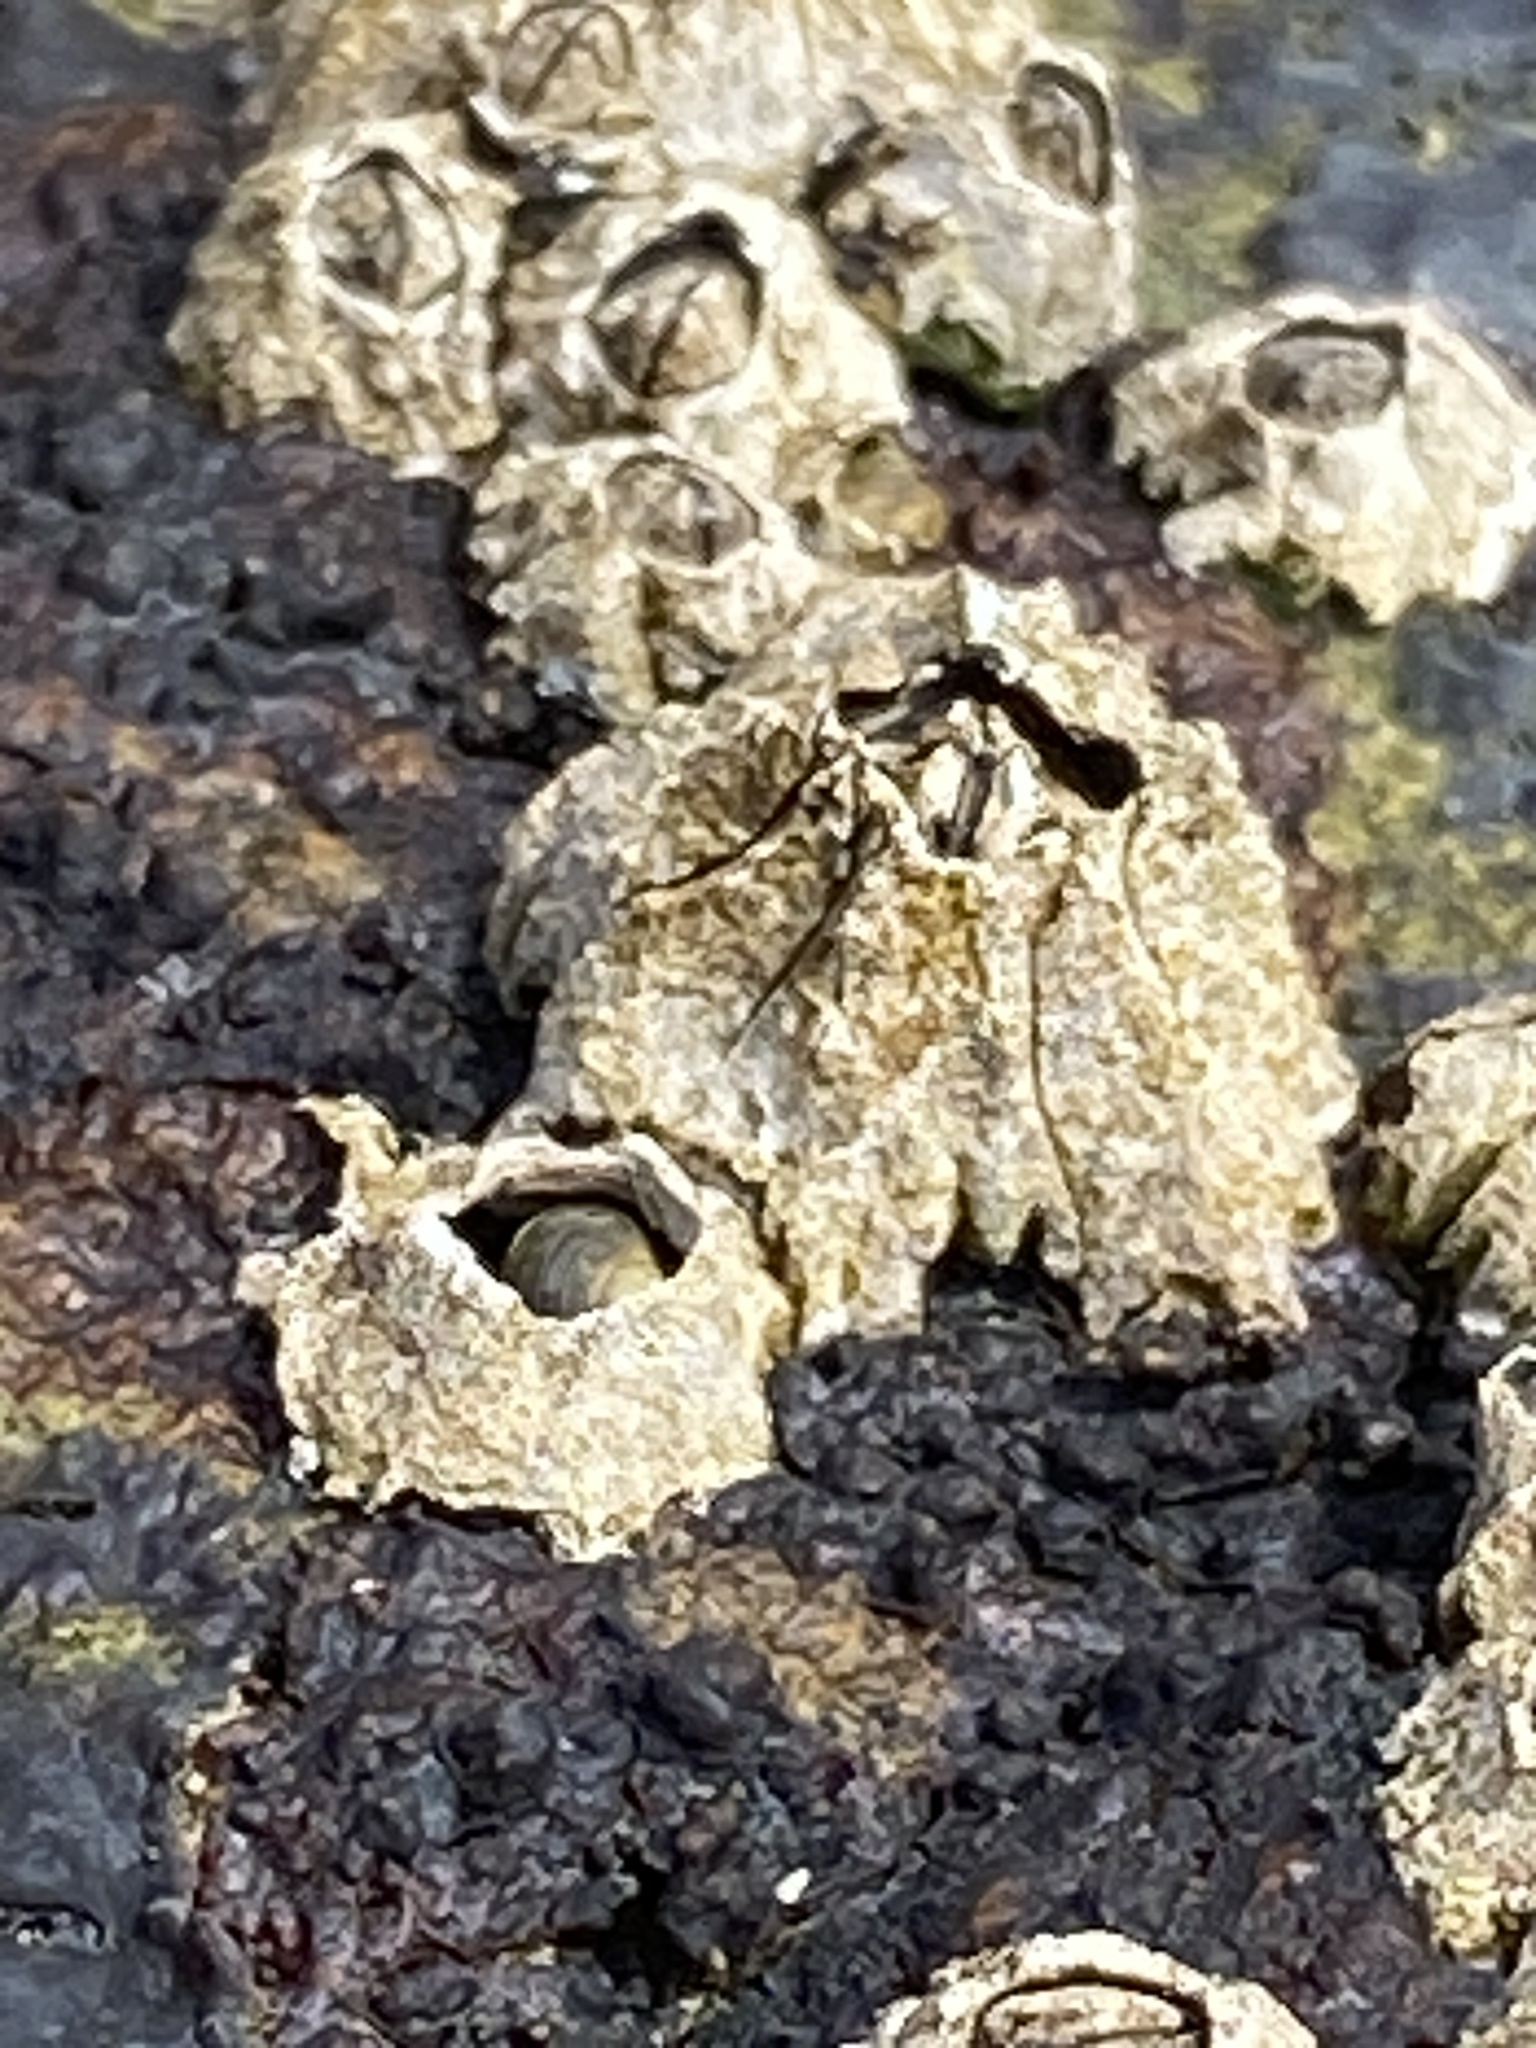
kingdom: Animalia
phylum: Arthropoda
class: Maxillopoda
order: Sessilia
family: Balanidae
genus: Balanus
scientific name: Balanus glandula
